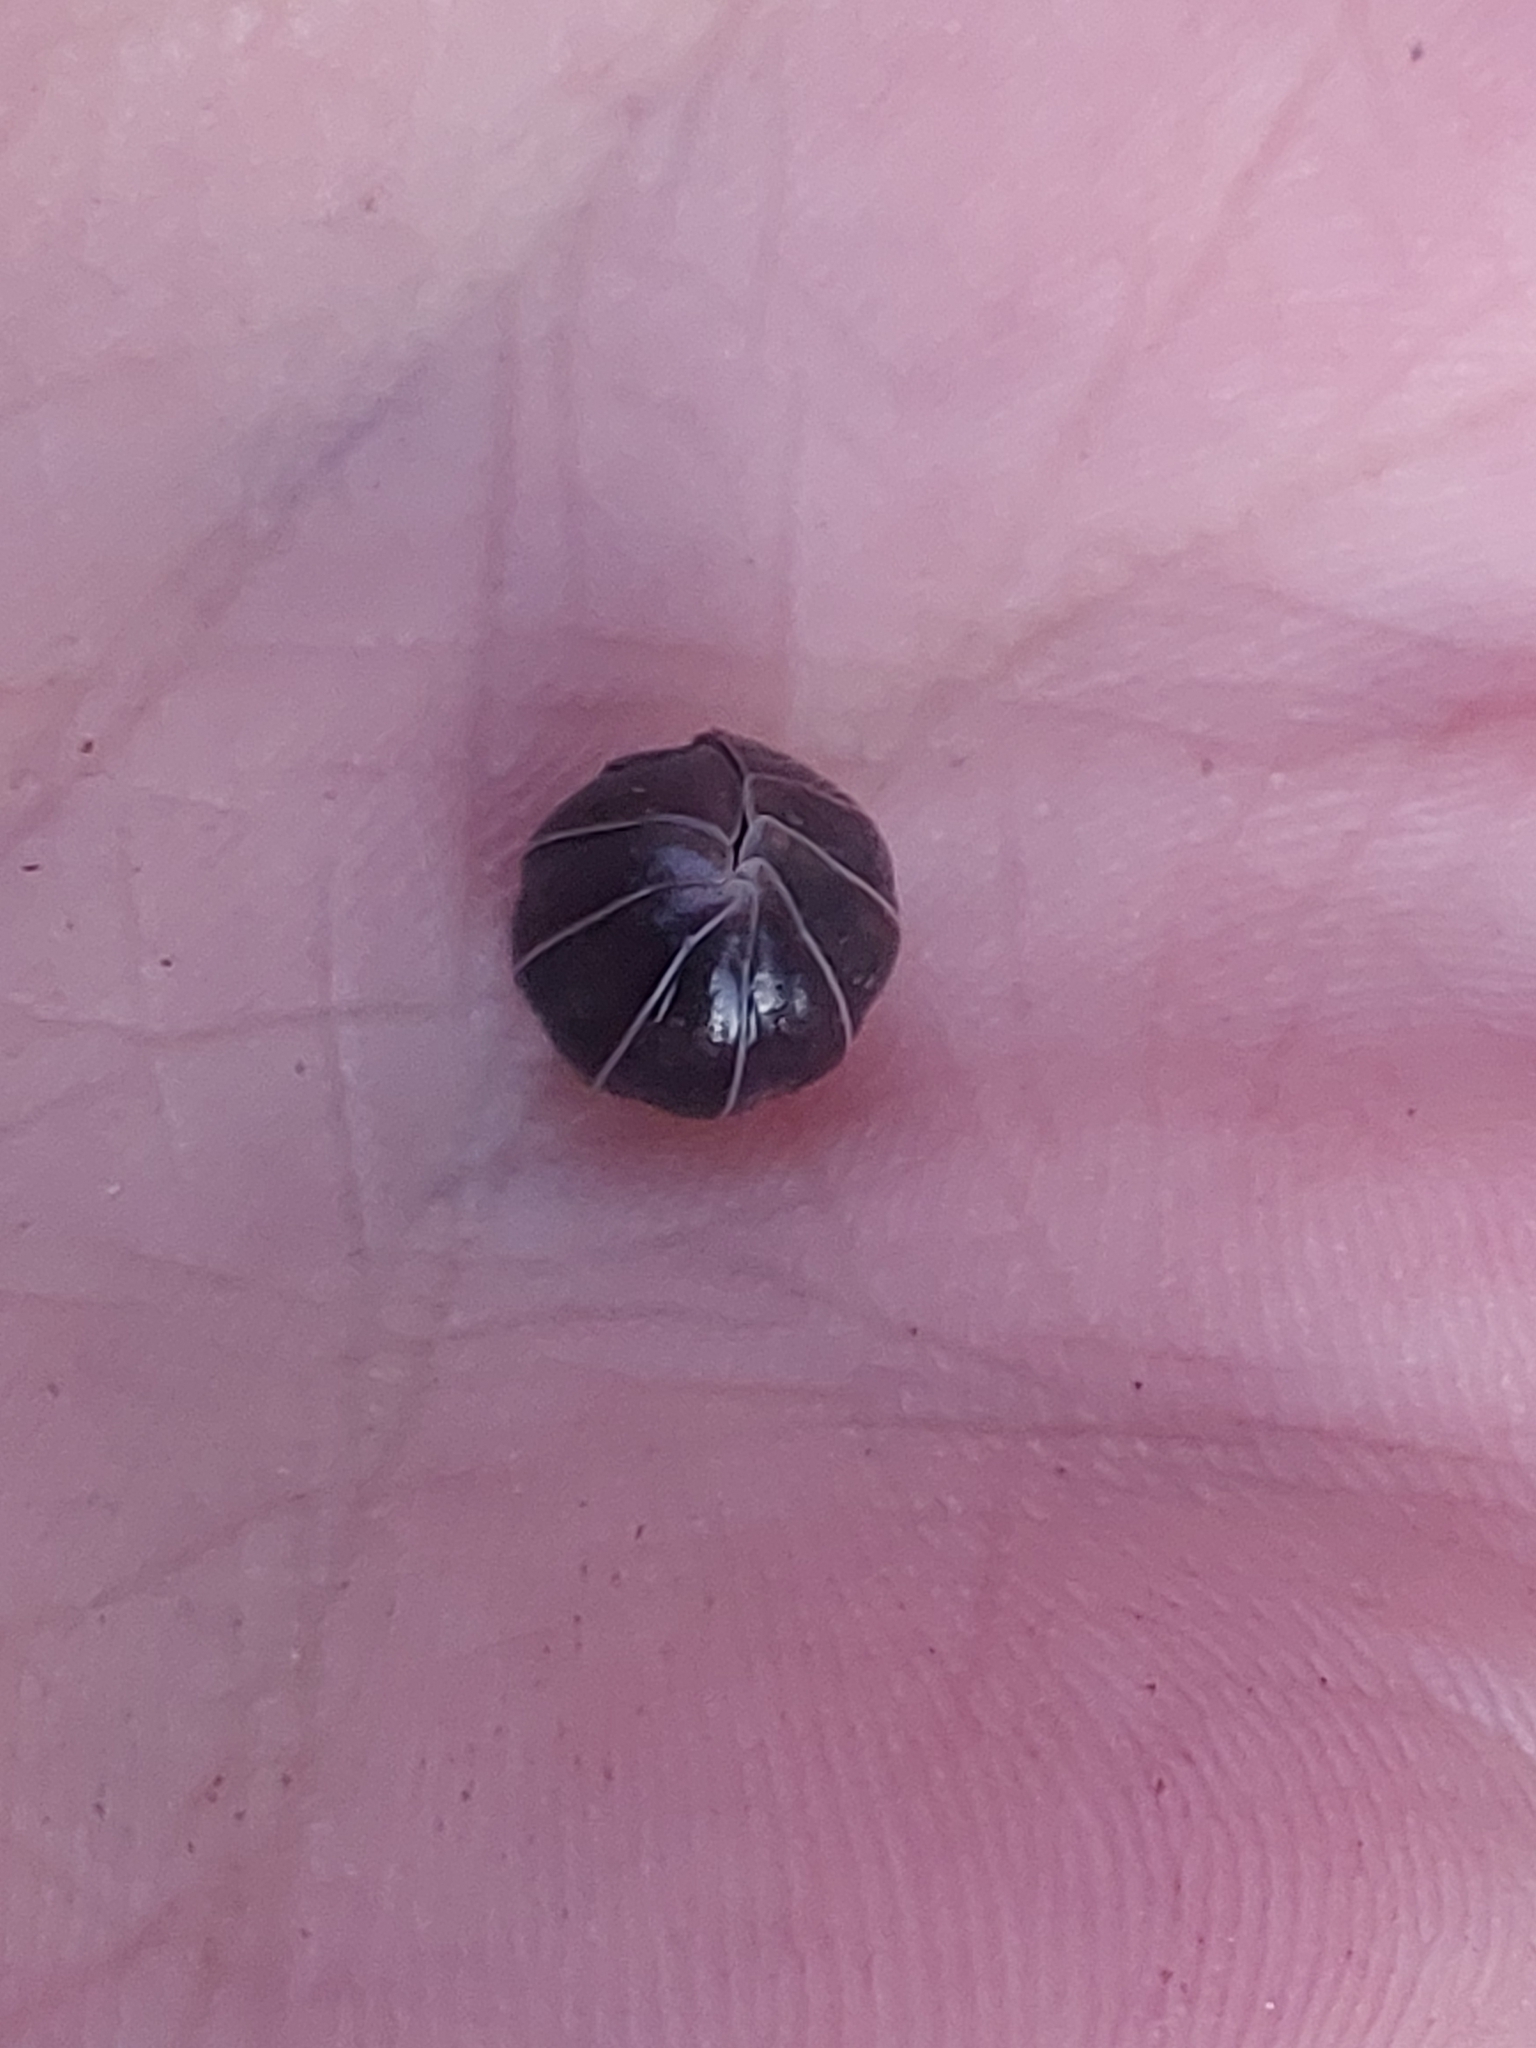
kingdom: Animalia
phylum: Arthropoda
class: Malacostraca
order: Isopoda
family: Armadillidiidae
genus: Armadillidium
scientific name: Armadillidium vulgare
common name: Common pill woodlouse
